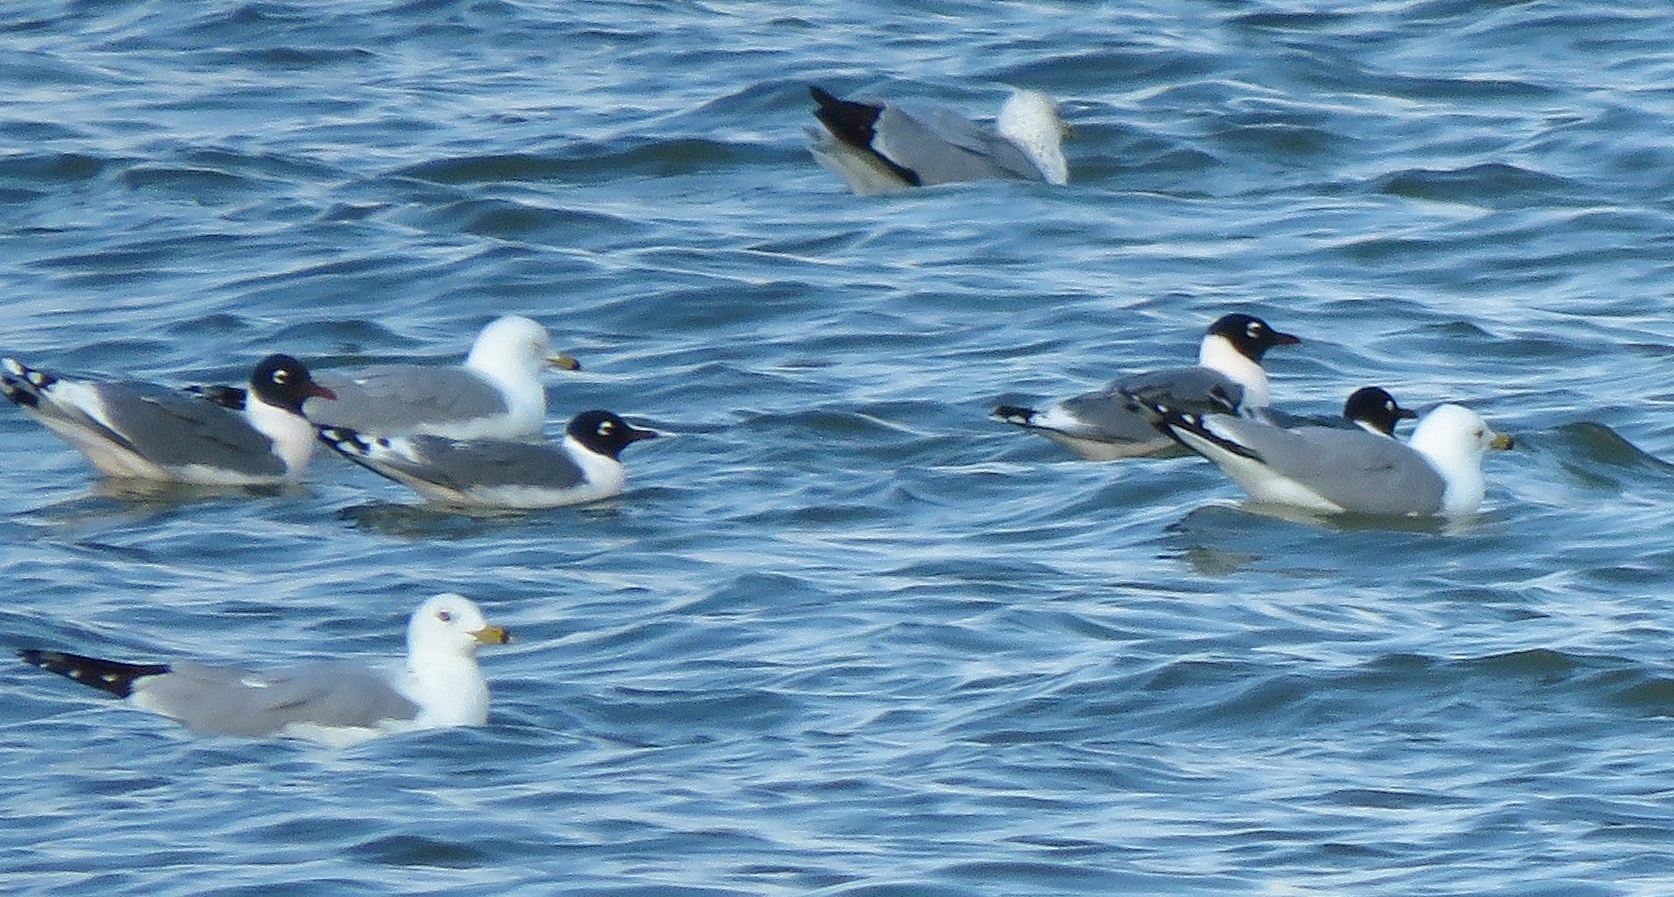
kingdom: Animalia
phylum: Chordata
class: Aves
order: Charadriiformes
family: Laridae
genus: Leucophaeus
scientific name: Leucophaeus pipixcan
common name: Franklin's gull
